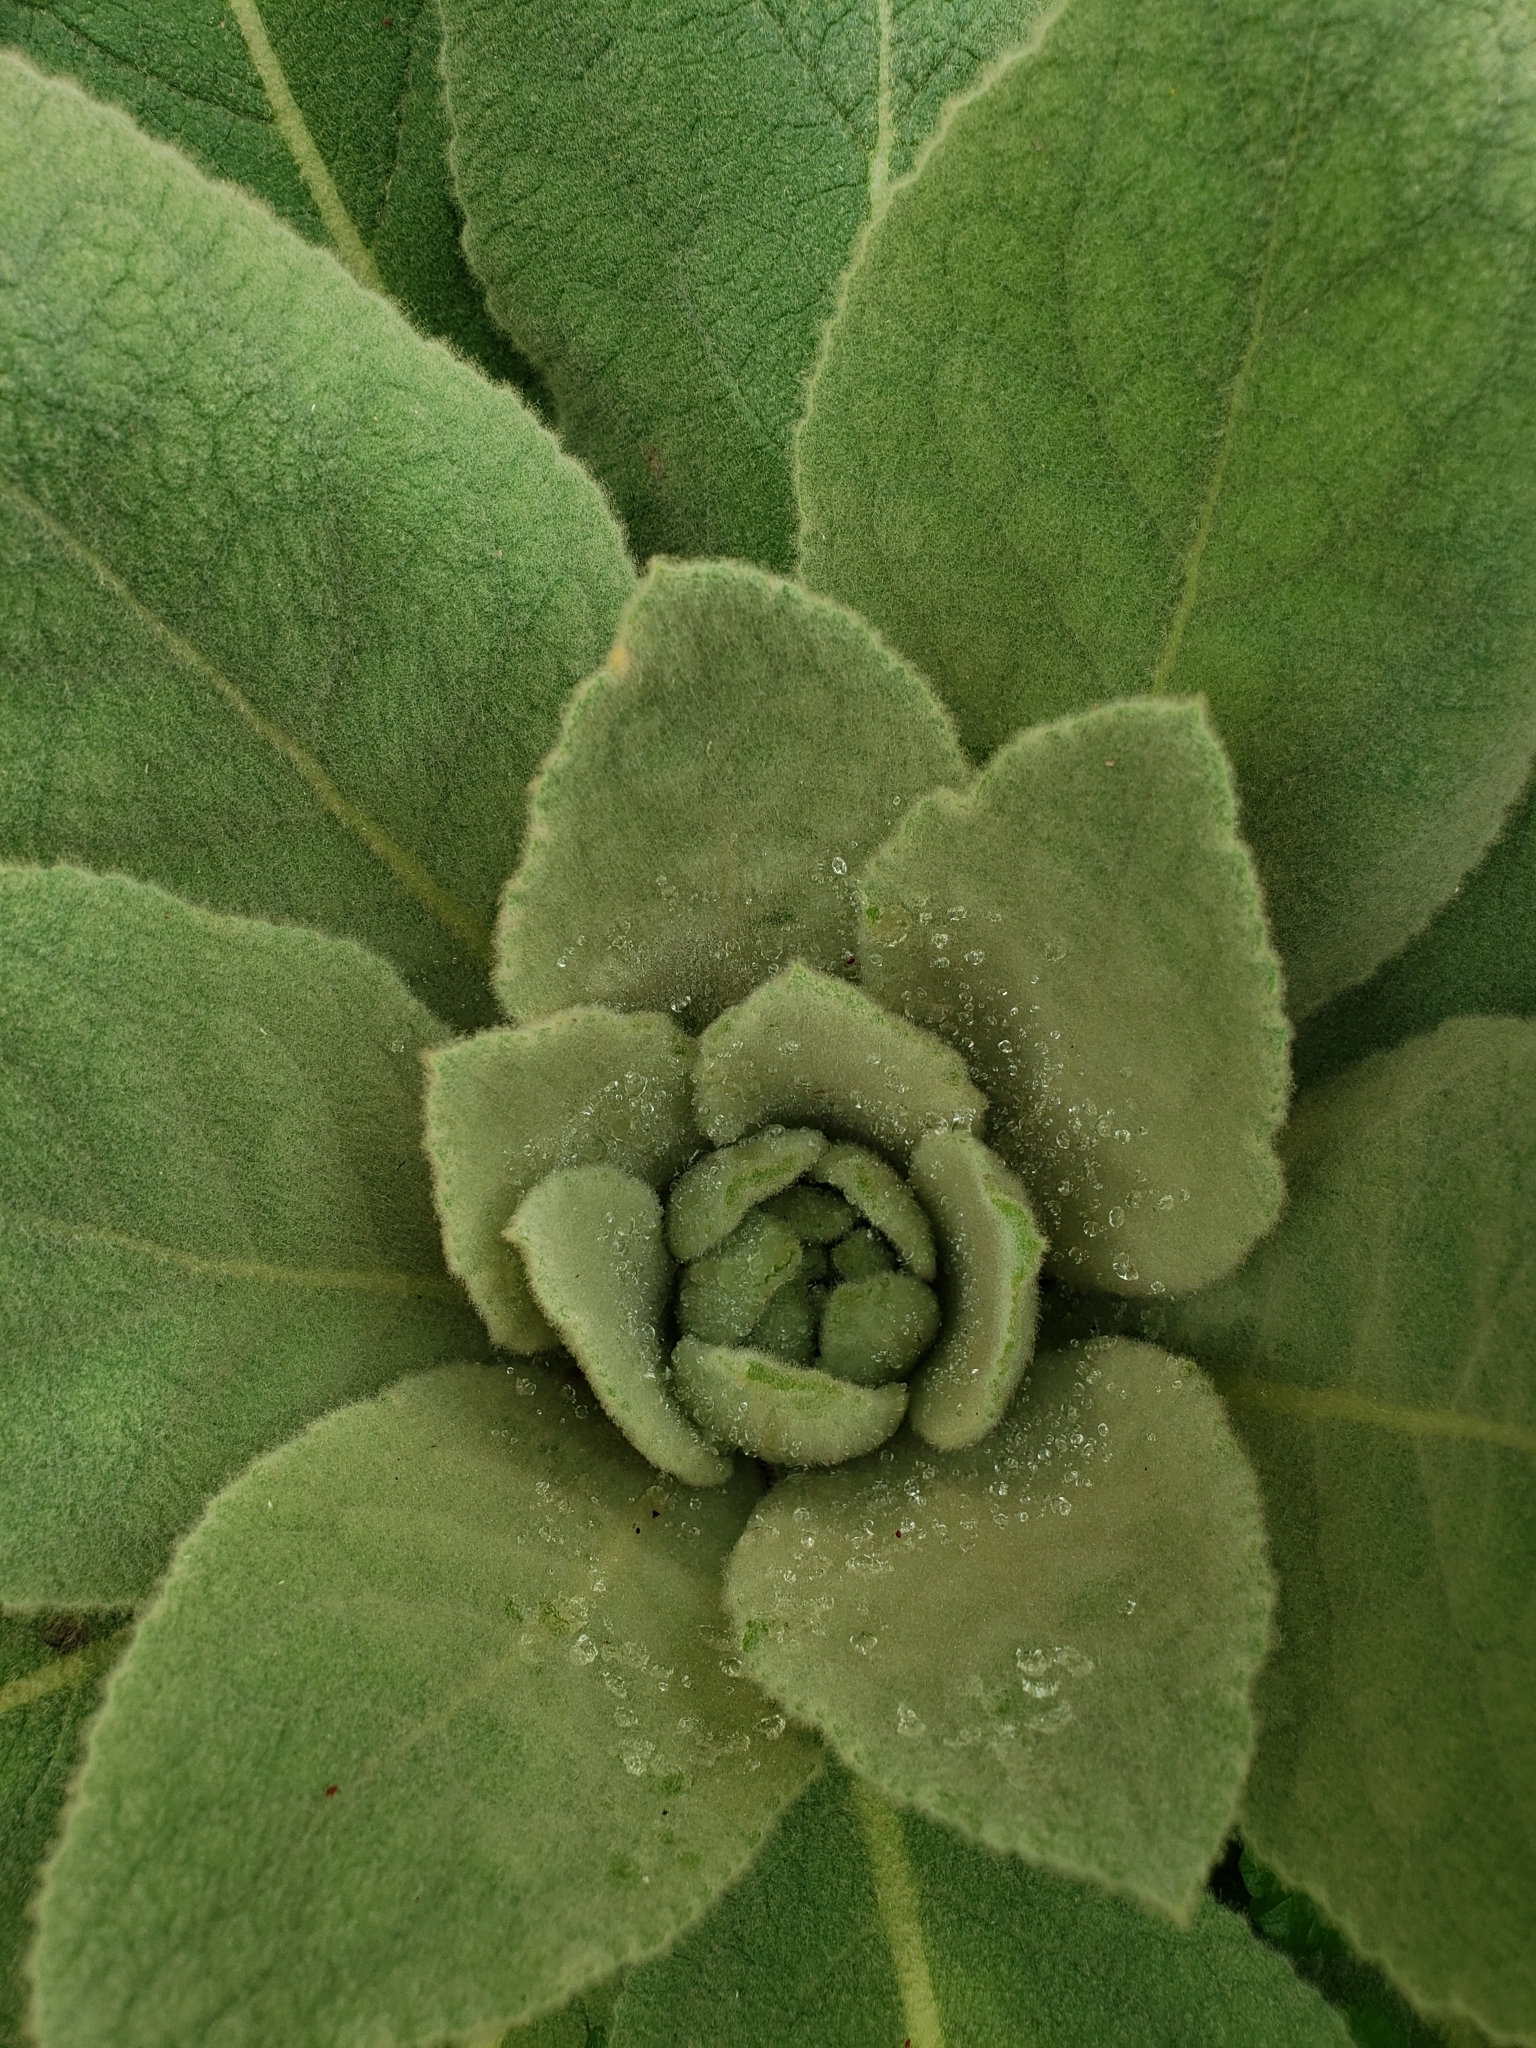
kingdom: Plantae
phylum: Tracheophyta
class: Magnoliopsida
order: Lamiales
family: Scrophulariaceae
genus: Verbascum
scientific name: Verbascum thapsus
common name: Common mullein
